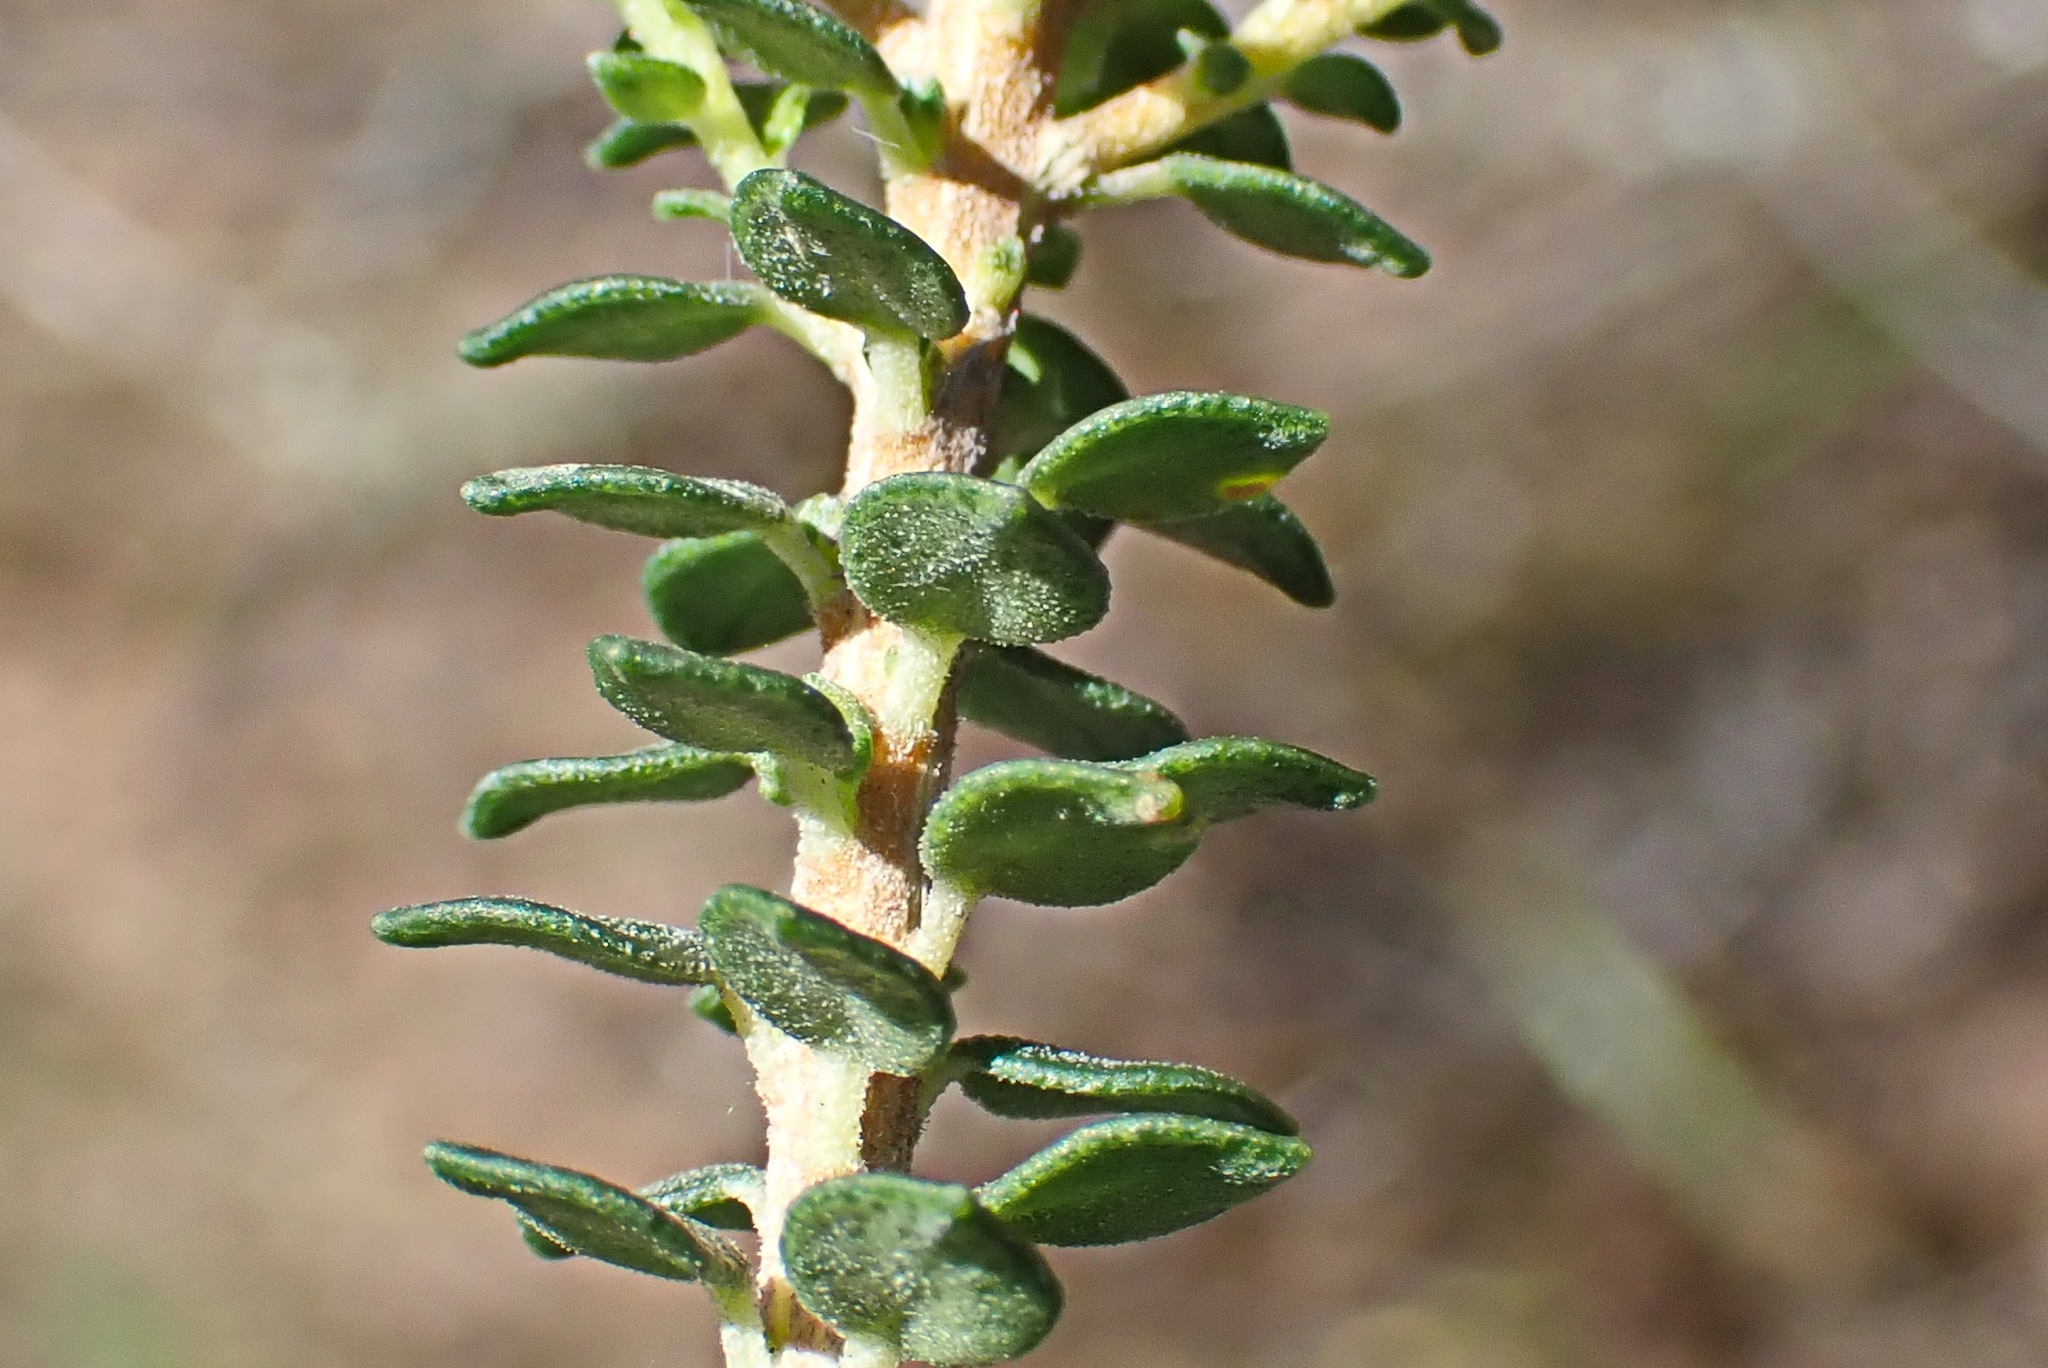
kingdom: Plantae
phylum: Tracheophyta
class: Magnoliopsida
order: Sapindales
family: Rutaceae
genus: Agathosma
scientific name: Agathosma apiculata
